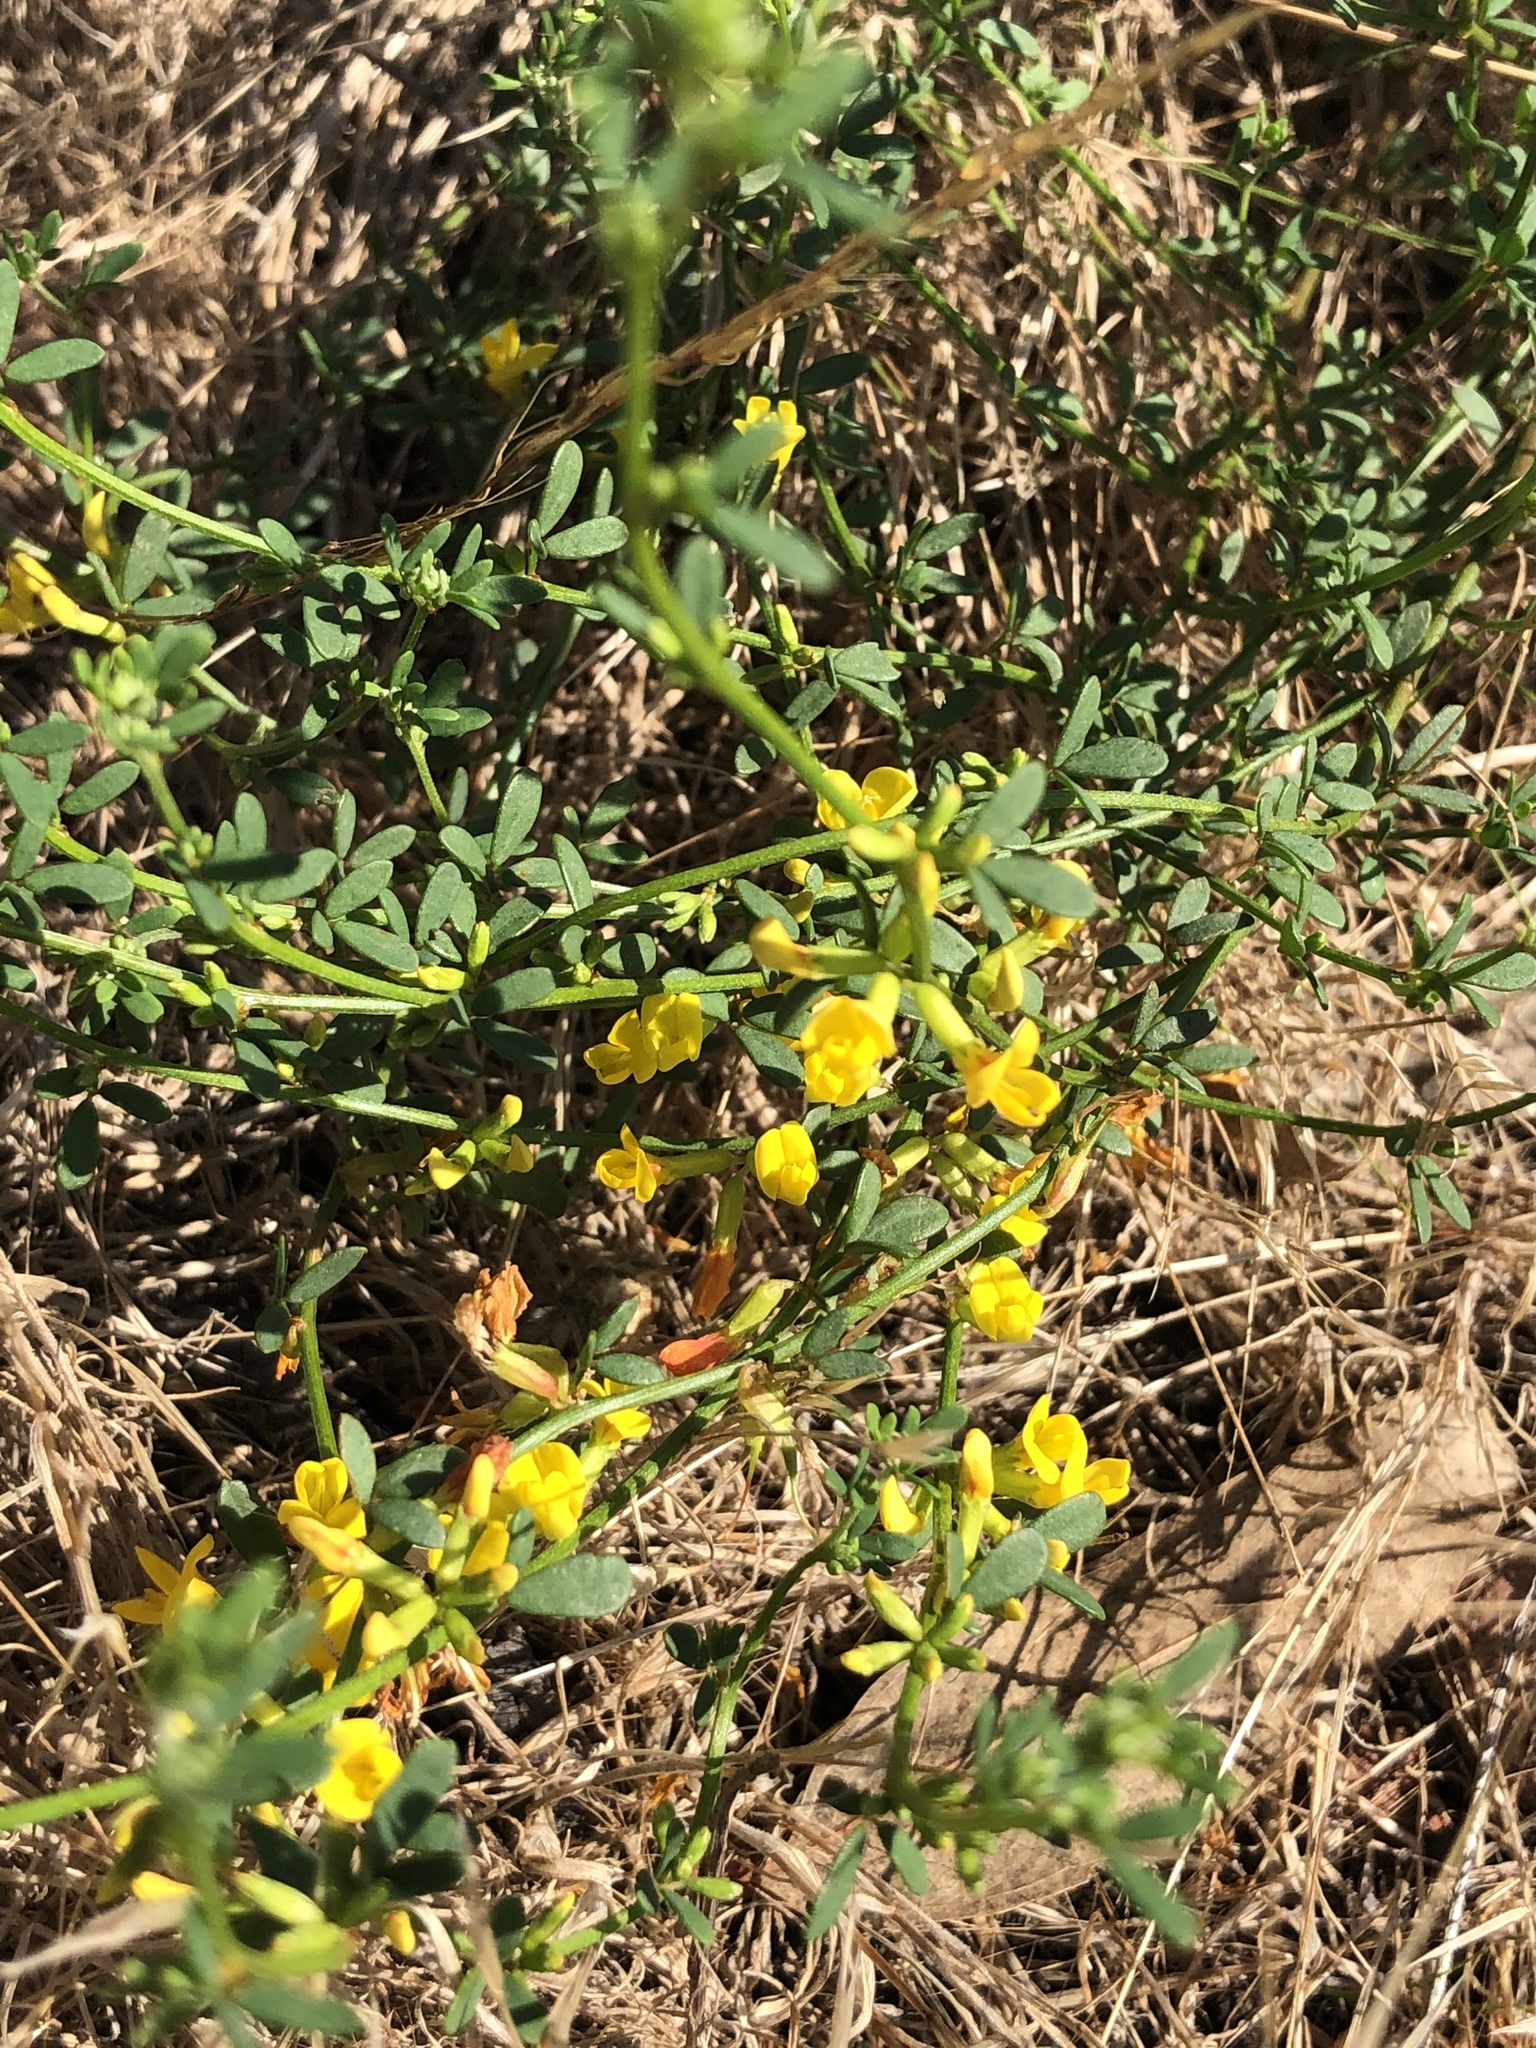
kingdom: Plantae
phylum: Tracheophyta
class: Magnoliopsida
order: Fabales
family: Fabaceae
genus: Acmispon
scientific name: Acmispon glaber
